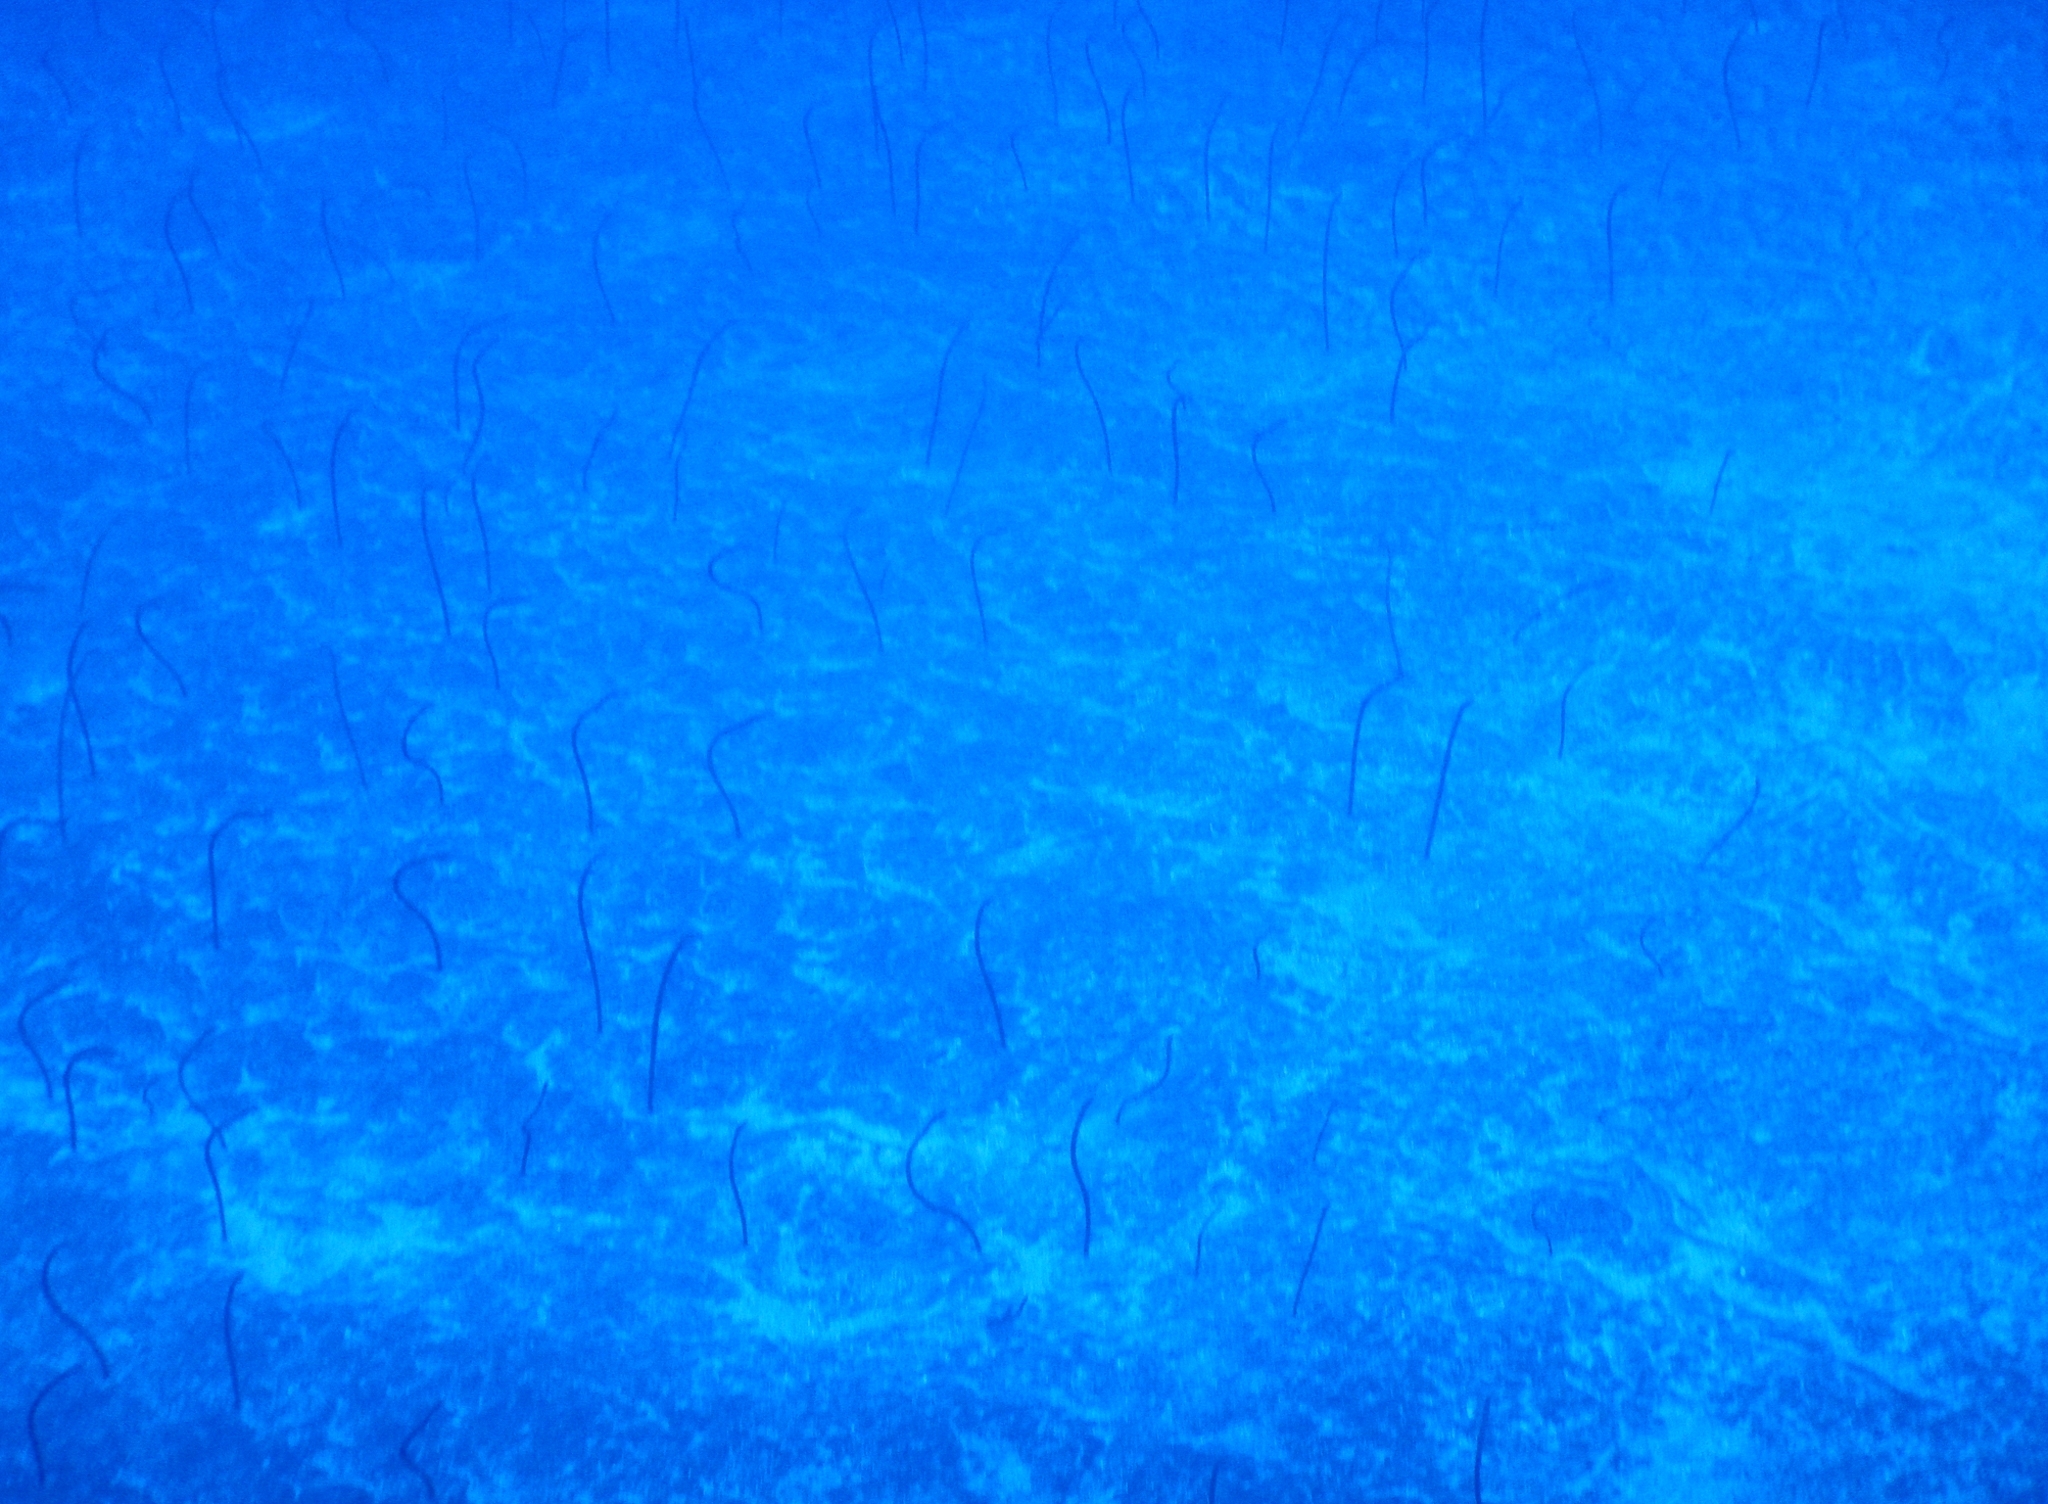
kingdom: Animalia
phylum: Chordata
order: Anguilliformes
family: Congridae
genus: Heteroconger
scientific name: Heteroconger longissimus
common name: Garden eel
